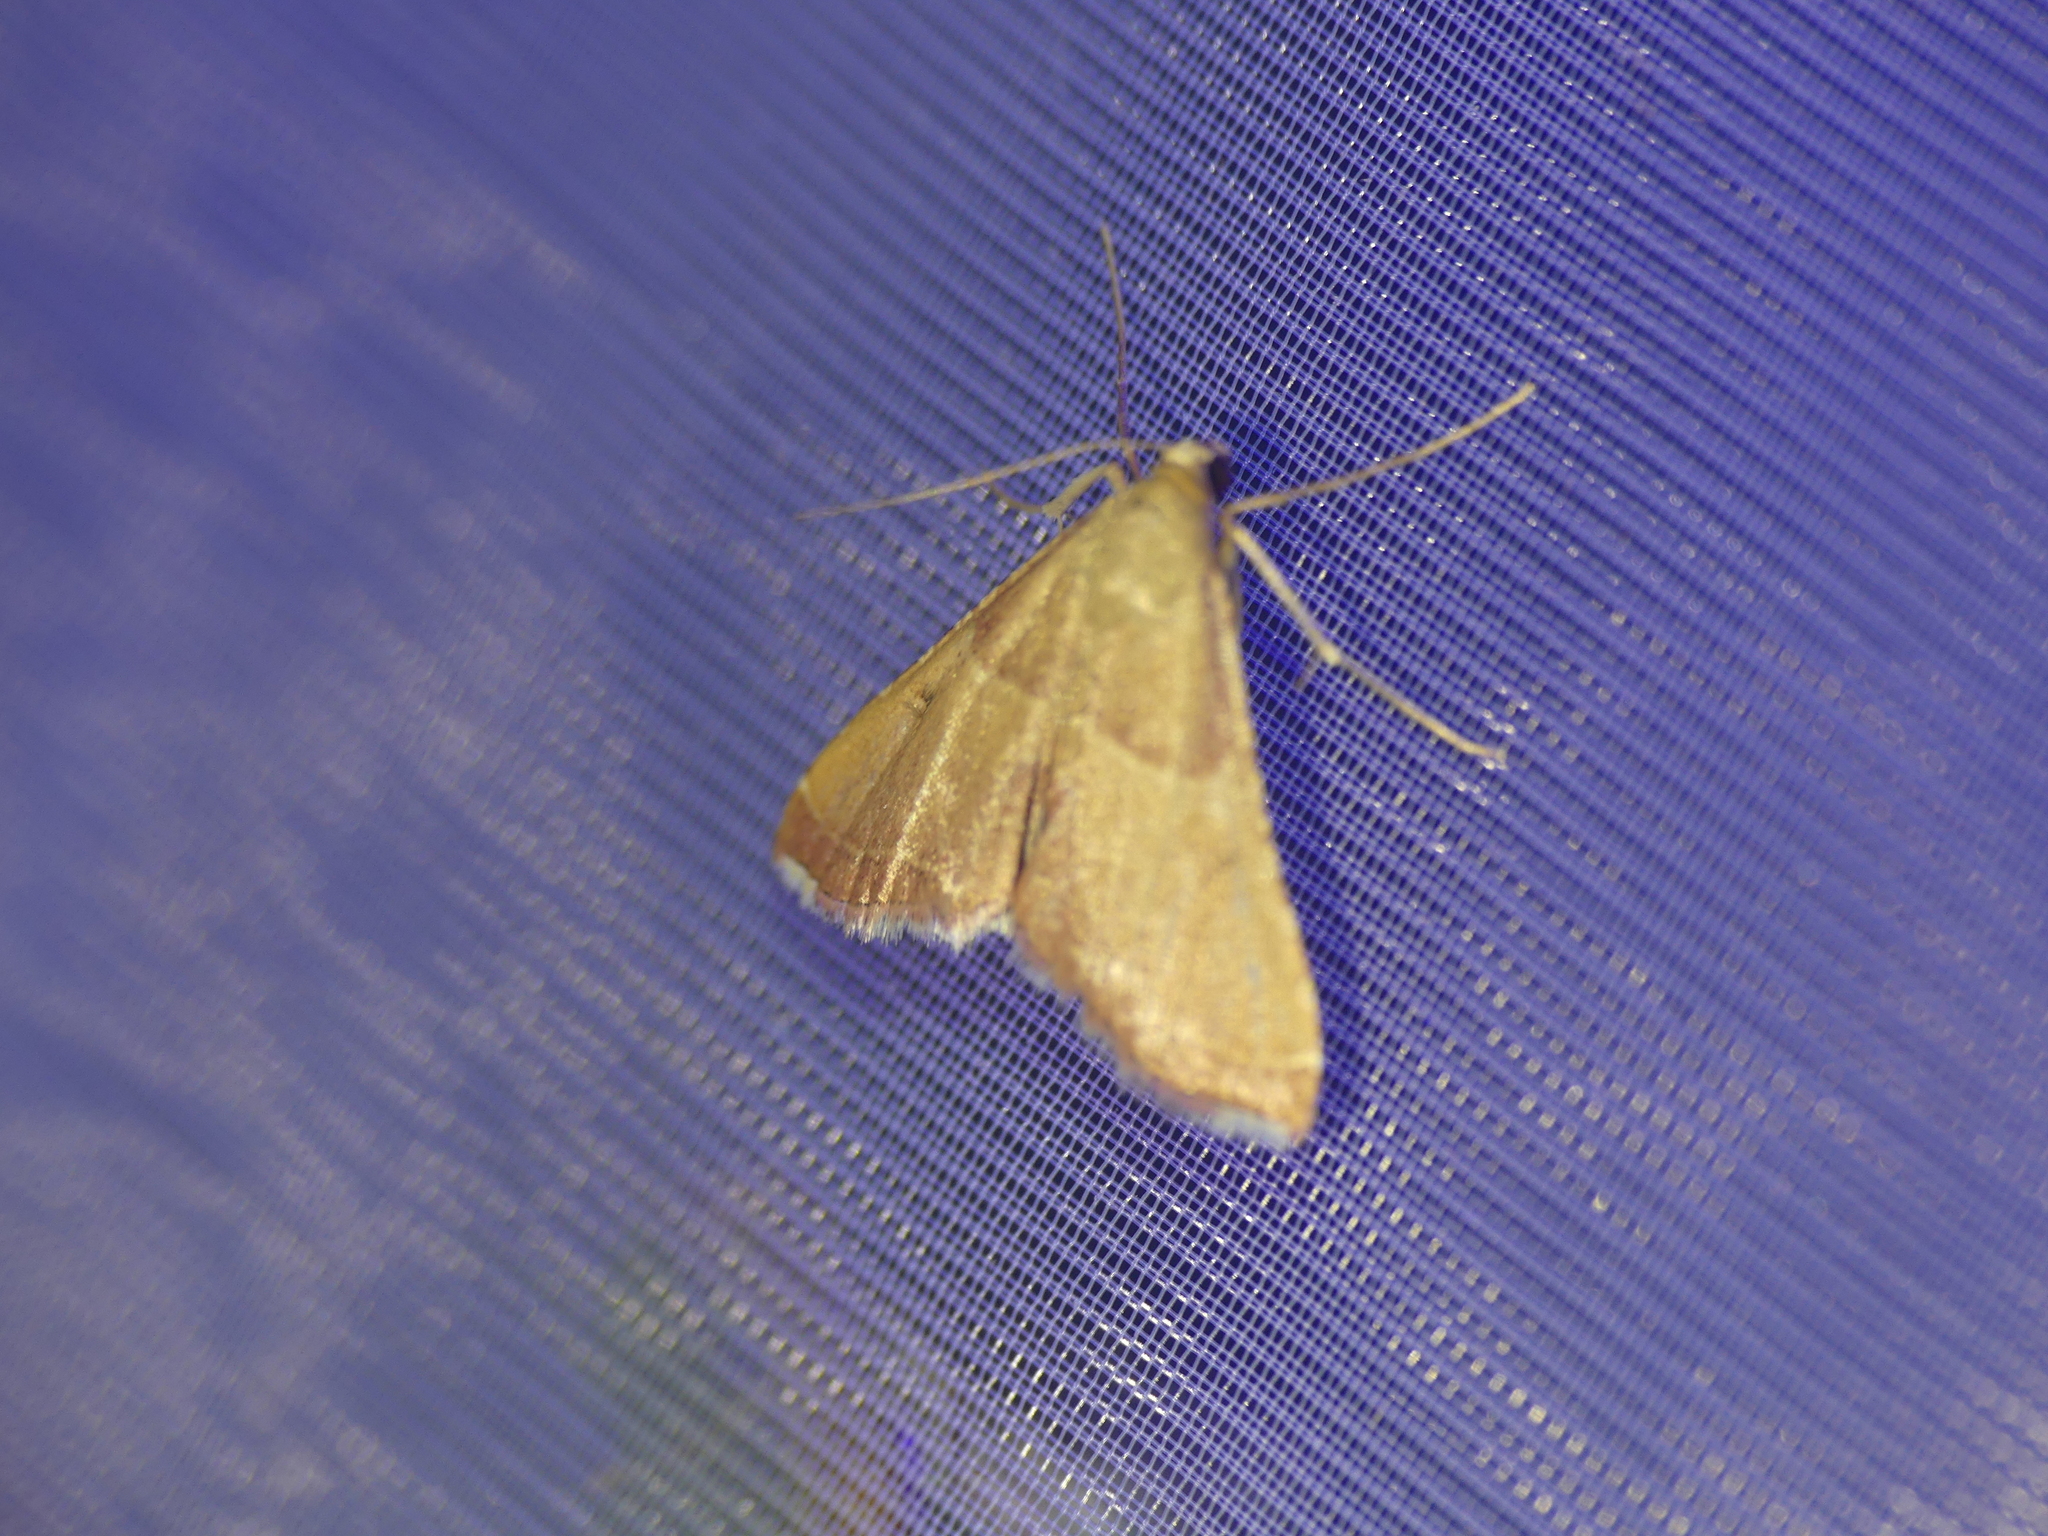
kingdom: Animalia
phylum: Arthropoda
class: Insecta
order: Lepidoptera
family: Pyralidae
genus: Endotricha
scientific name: Endotricha flammealis
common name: Rosy tabby
